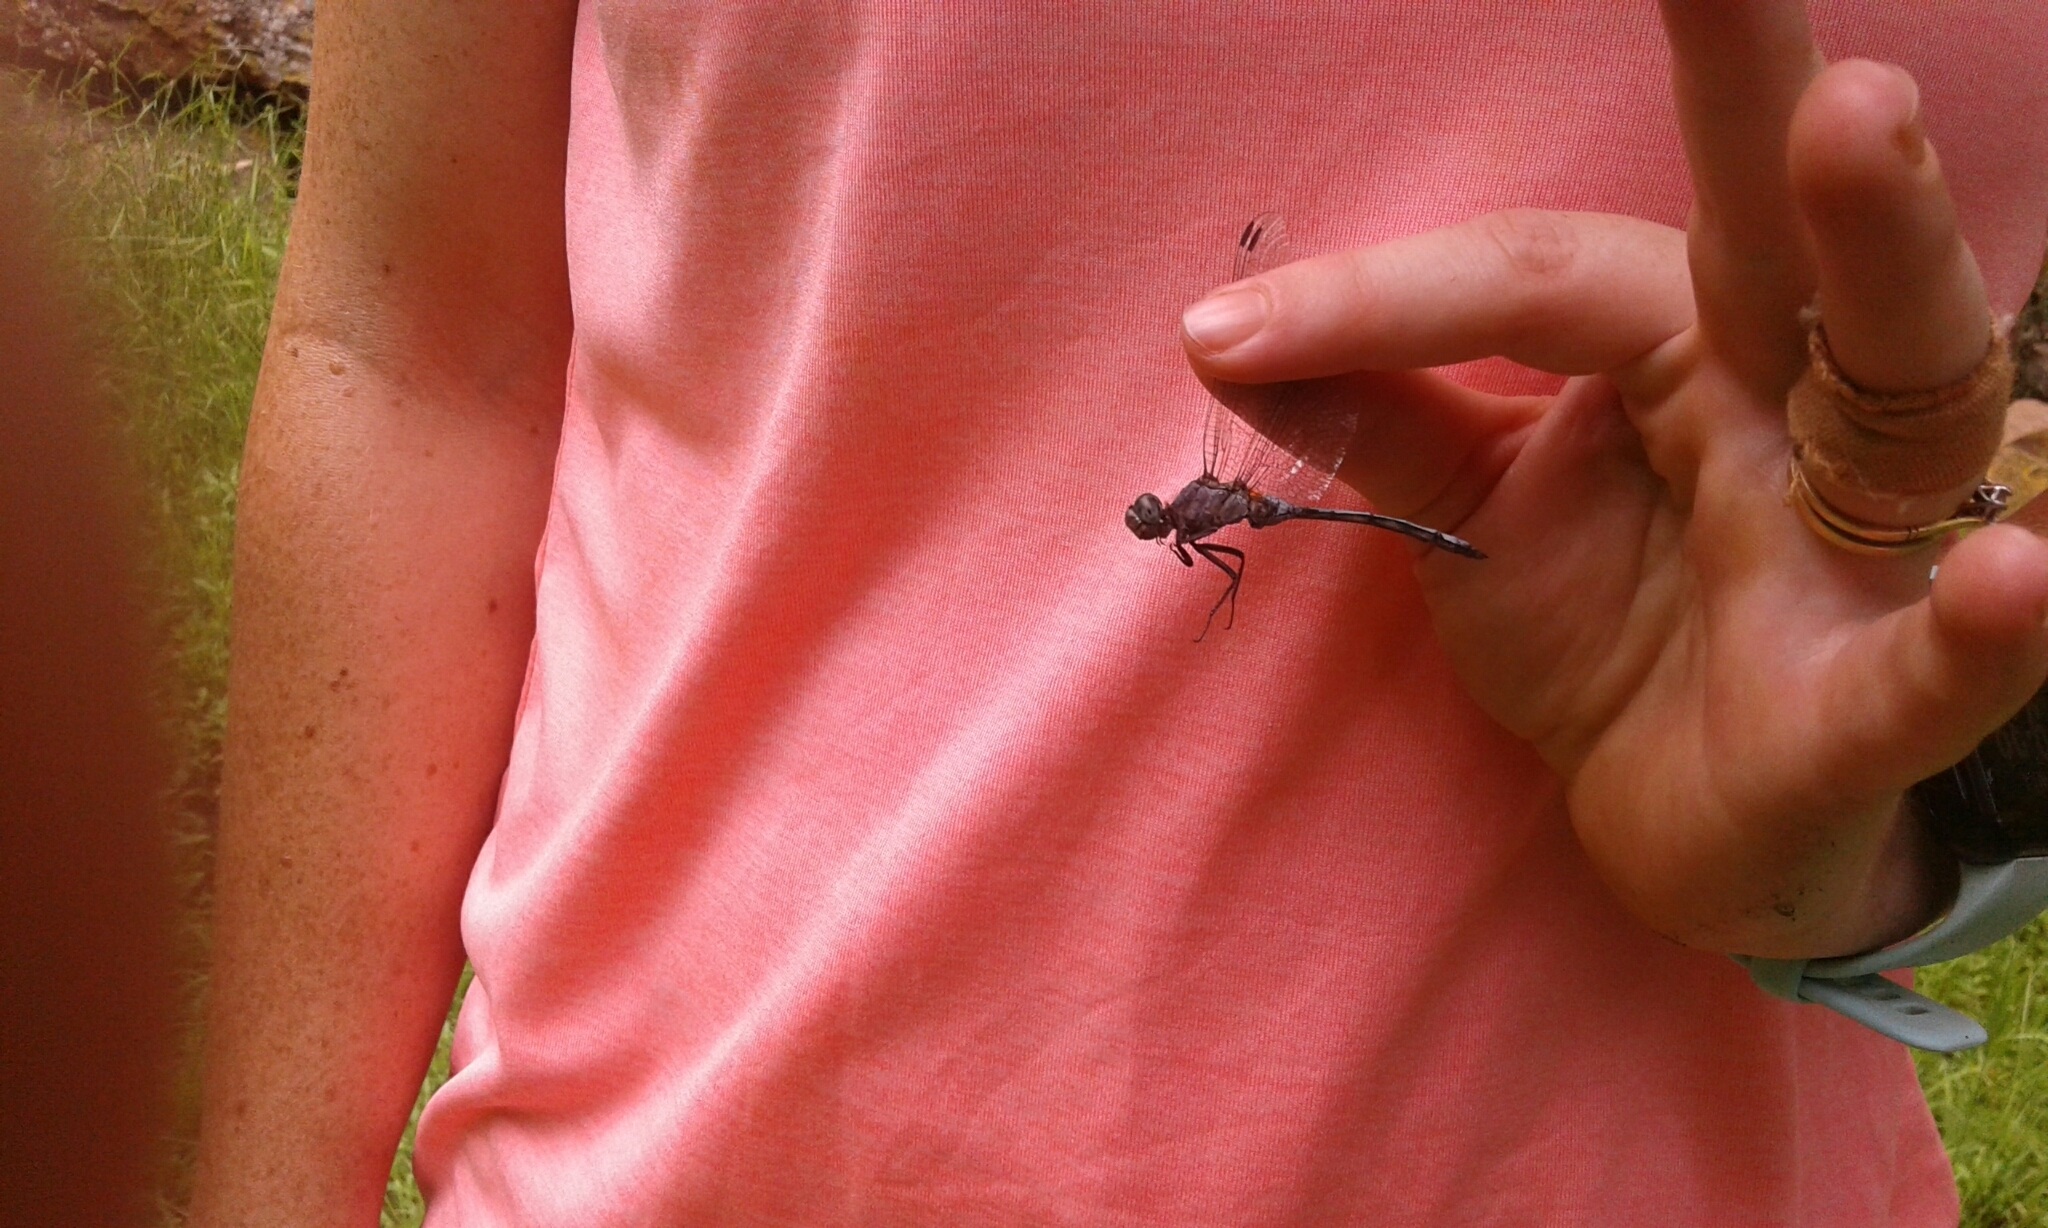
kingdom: Animalia
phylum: Arthropoda
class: Insecta
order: Odonata
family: Libellulidae
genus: Orthetrum
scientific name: Orthetrum julia
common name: Julia skimmer
